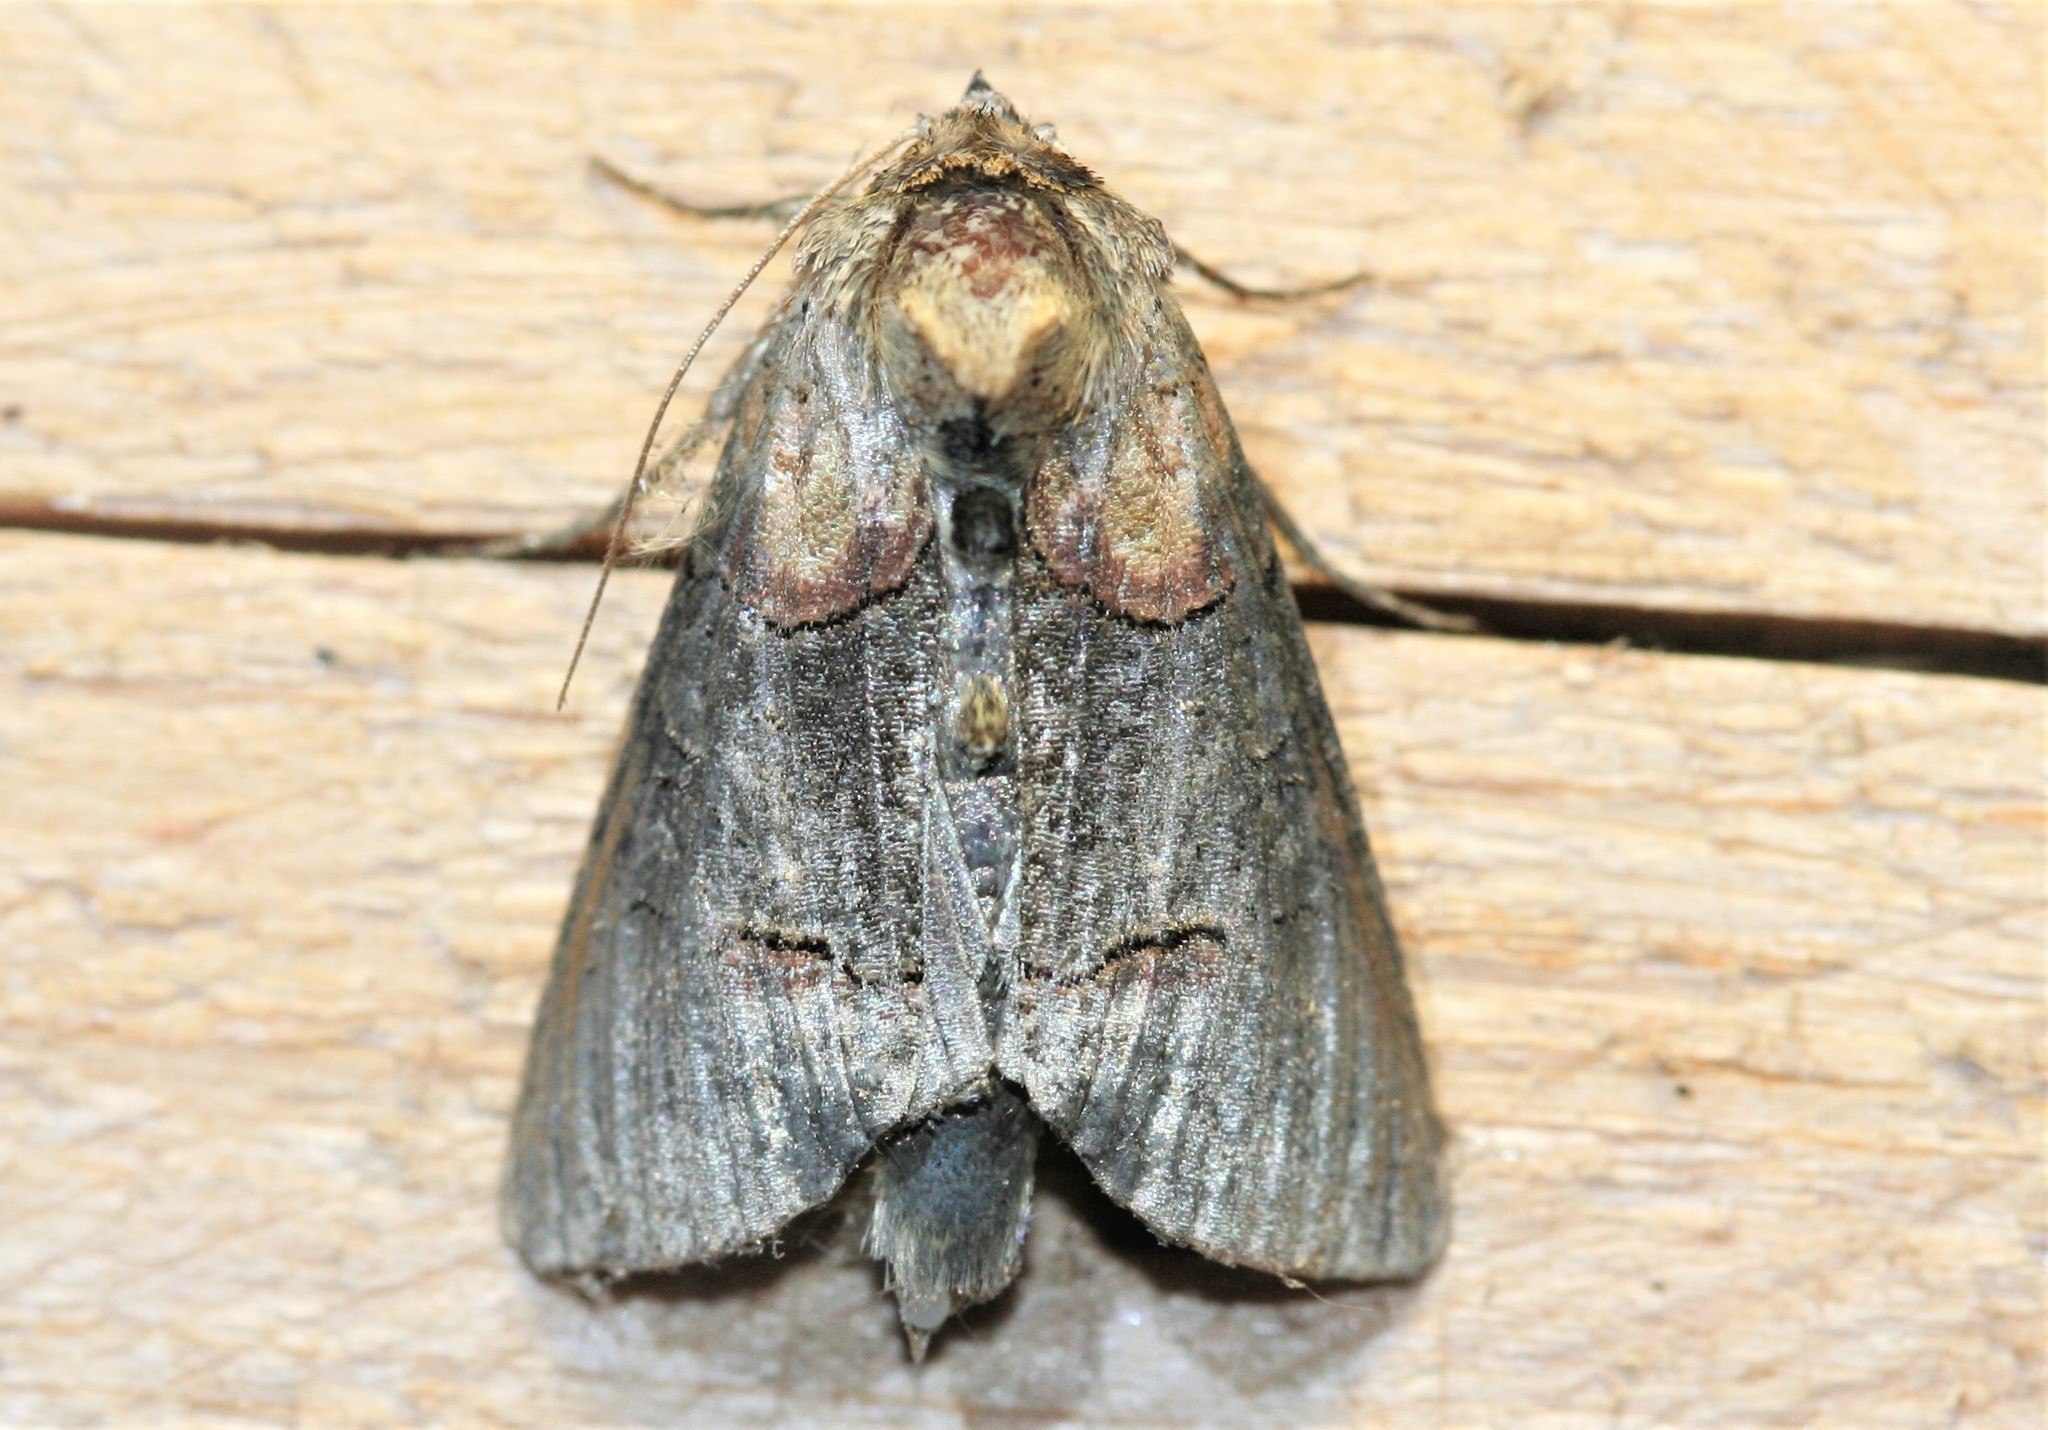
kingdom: Animalia
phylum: Arthropoda
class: Insecta
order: Lepidoptera
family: Noctuidae
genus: Abrostola
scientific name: Abrostola triplasia
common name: Dark spectacle
